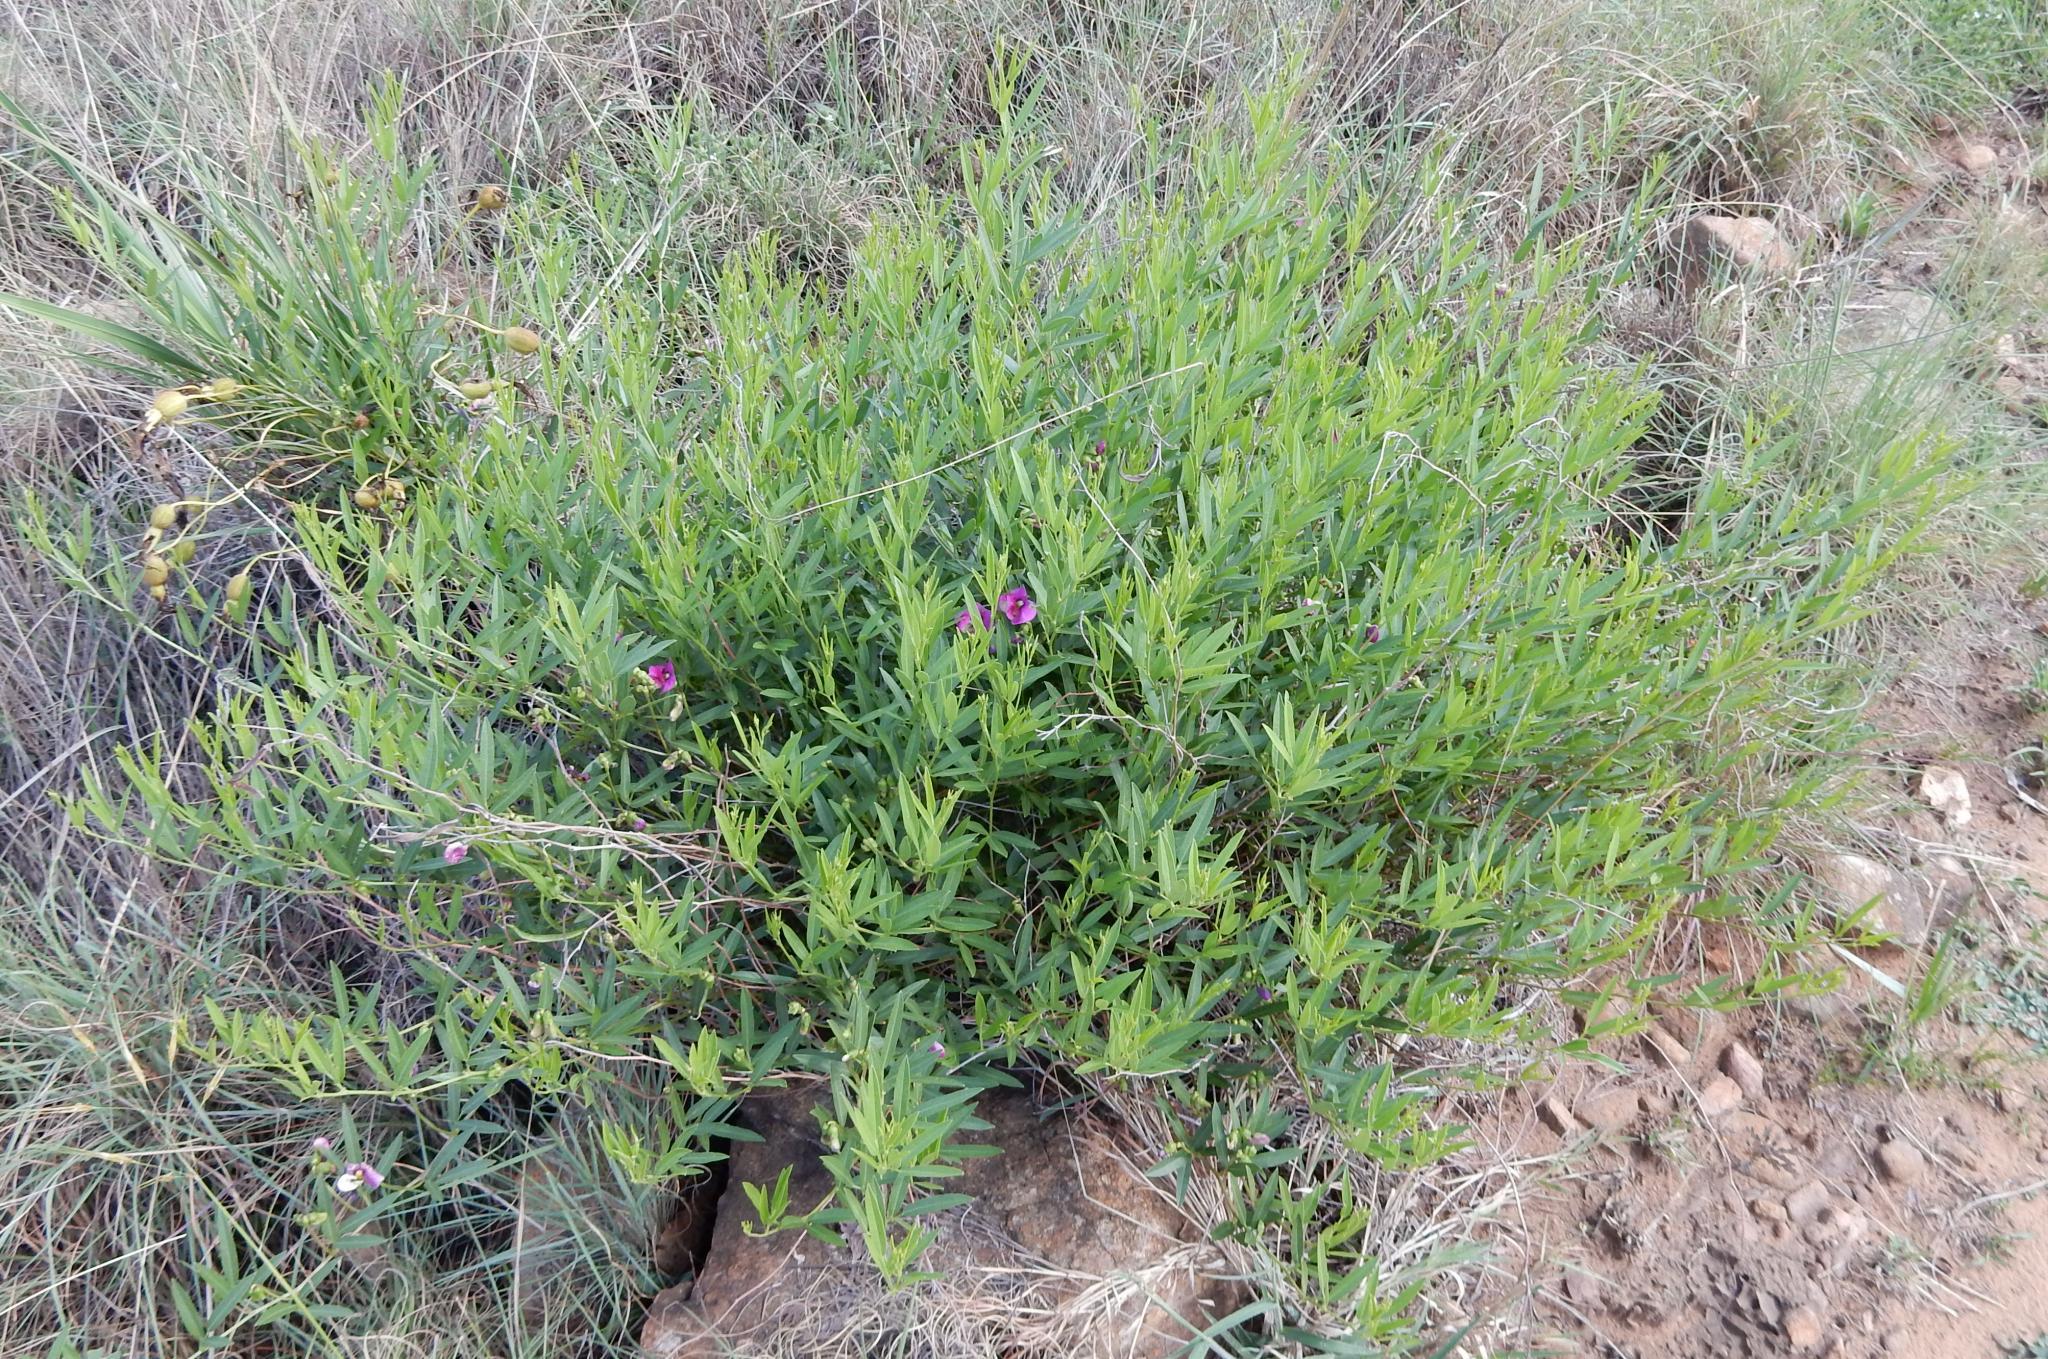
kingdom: Plantae
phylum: Tracheophyta
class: Magnoliopsida
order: Fabales
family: Fabaceae
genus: Sphenostylis
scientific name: Sphenostylis angustifolia
